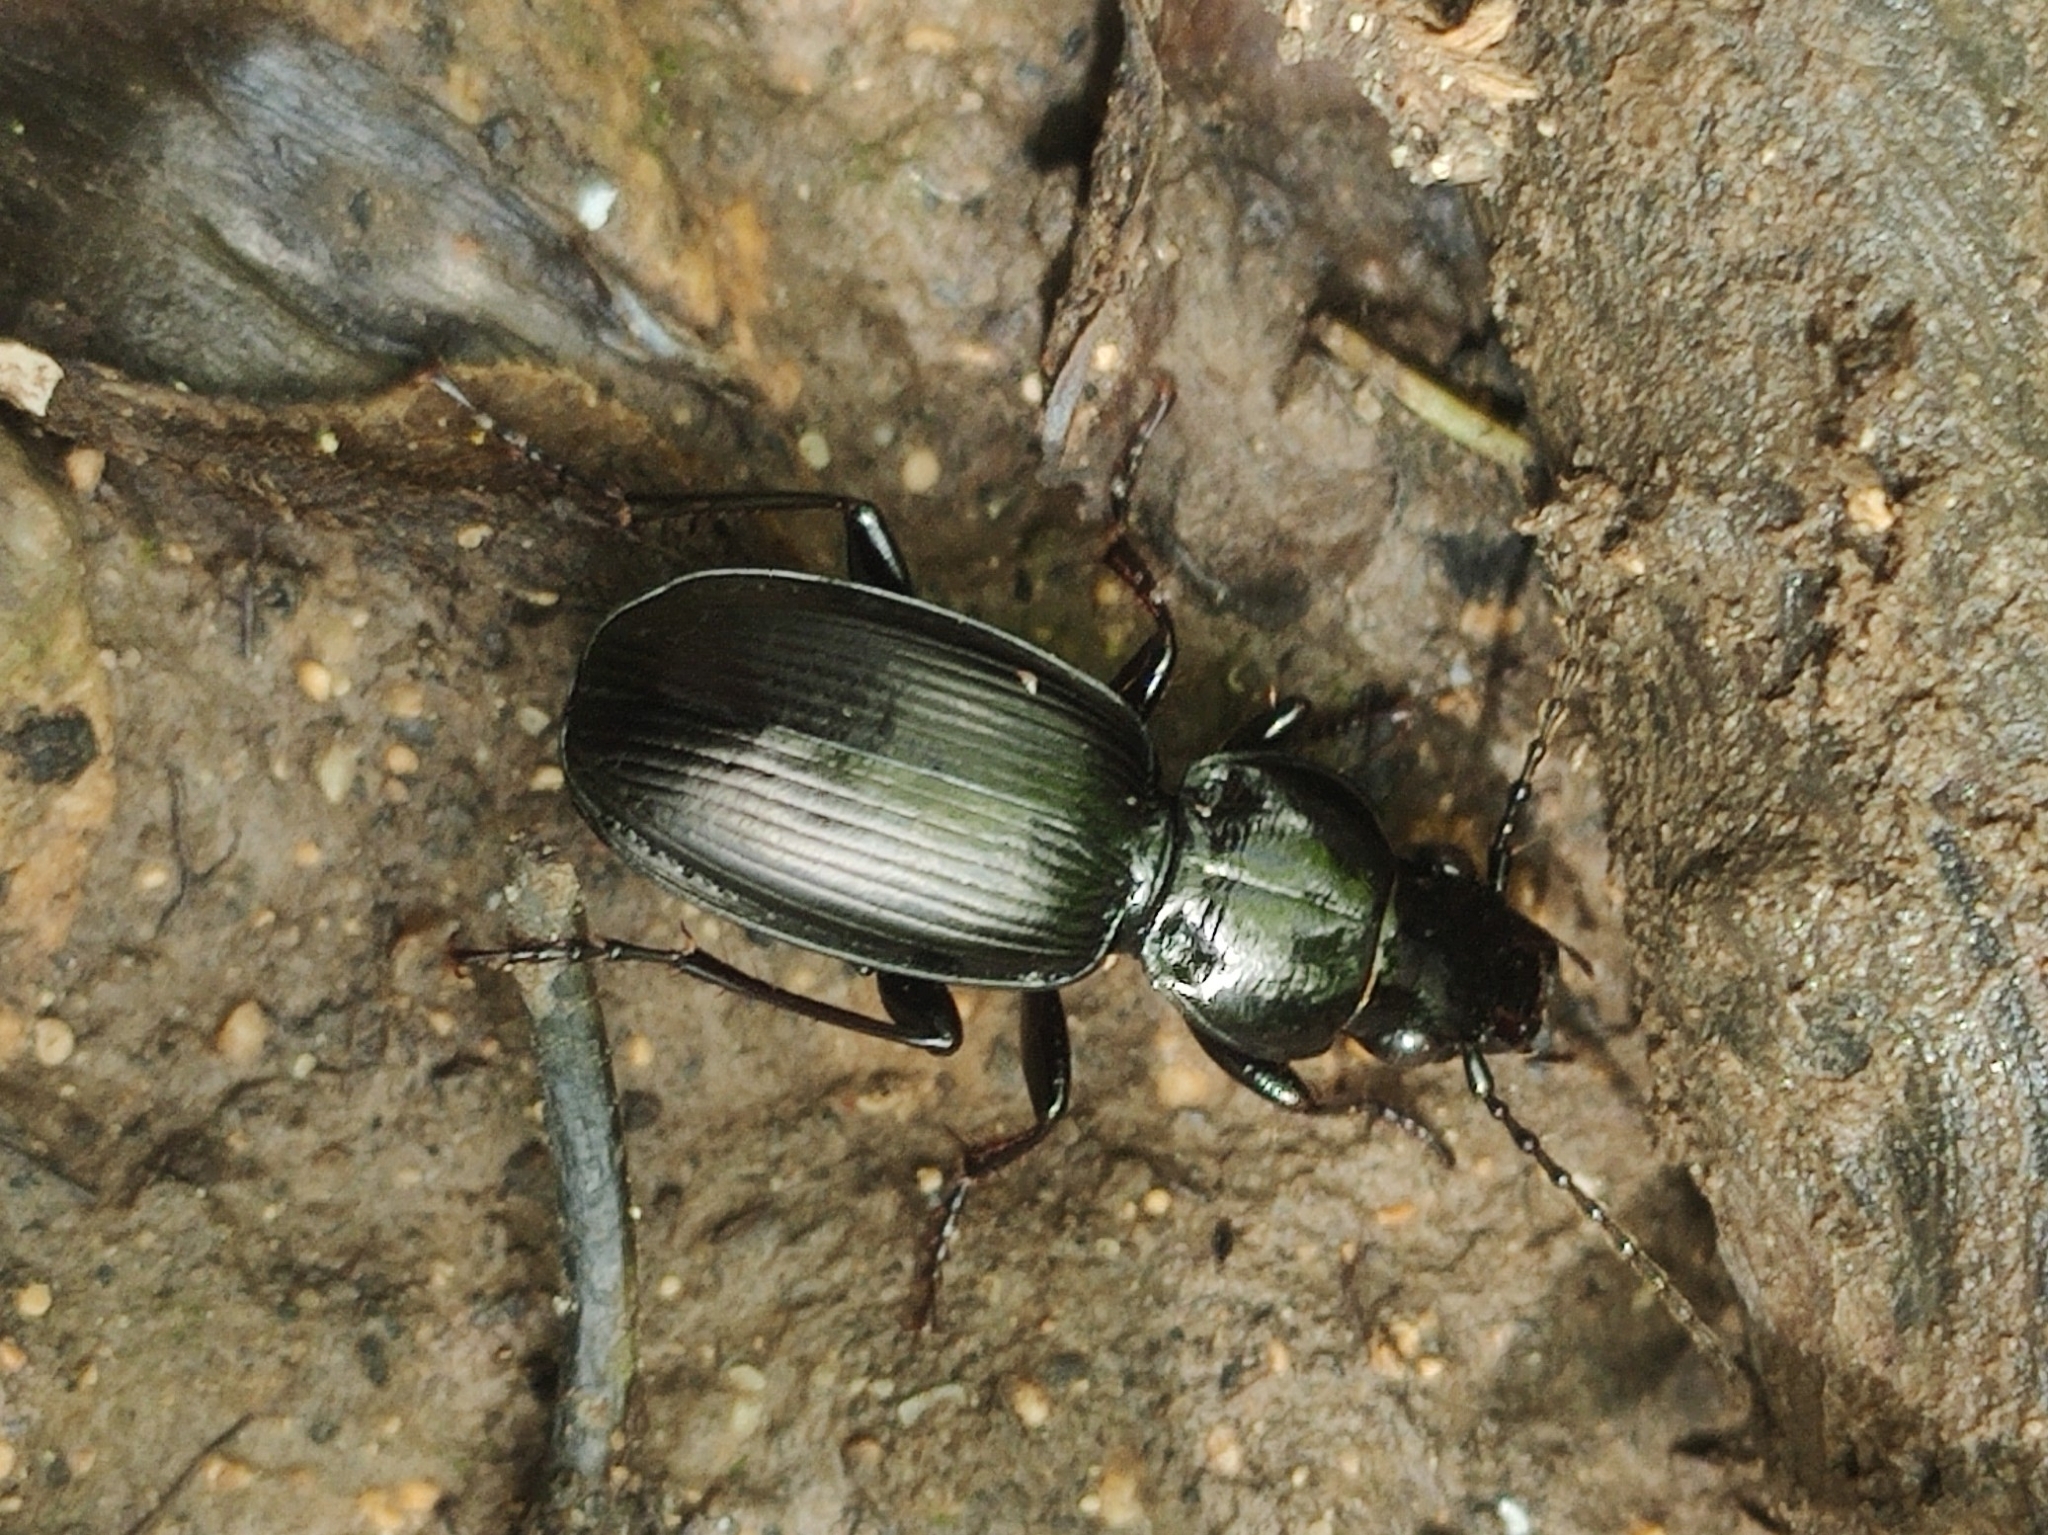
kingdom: Animalia
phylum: Arthropoda
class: Insecta
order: Coleoptera
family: Carabidae
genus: Pterostichus
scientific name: Pterostichus madidus
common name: Black clock
